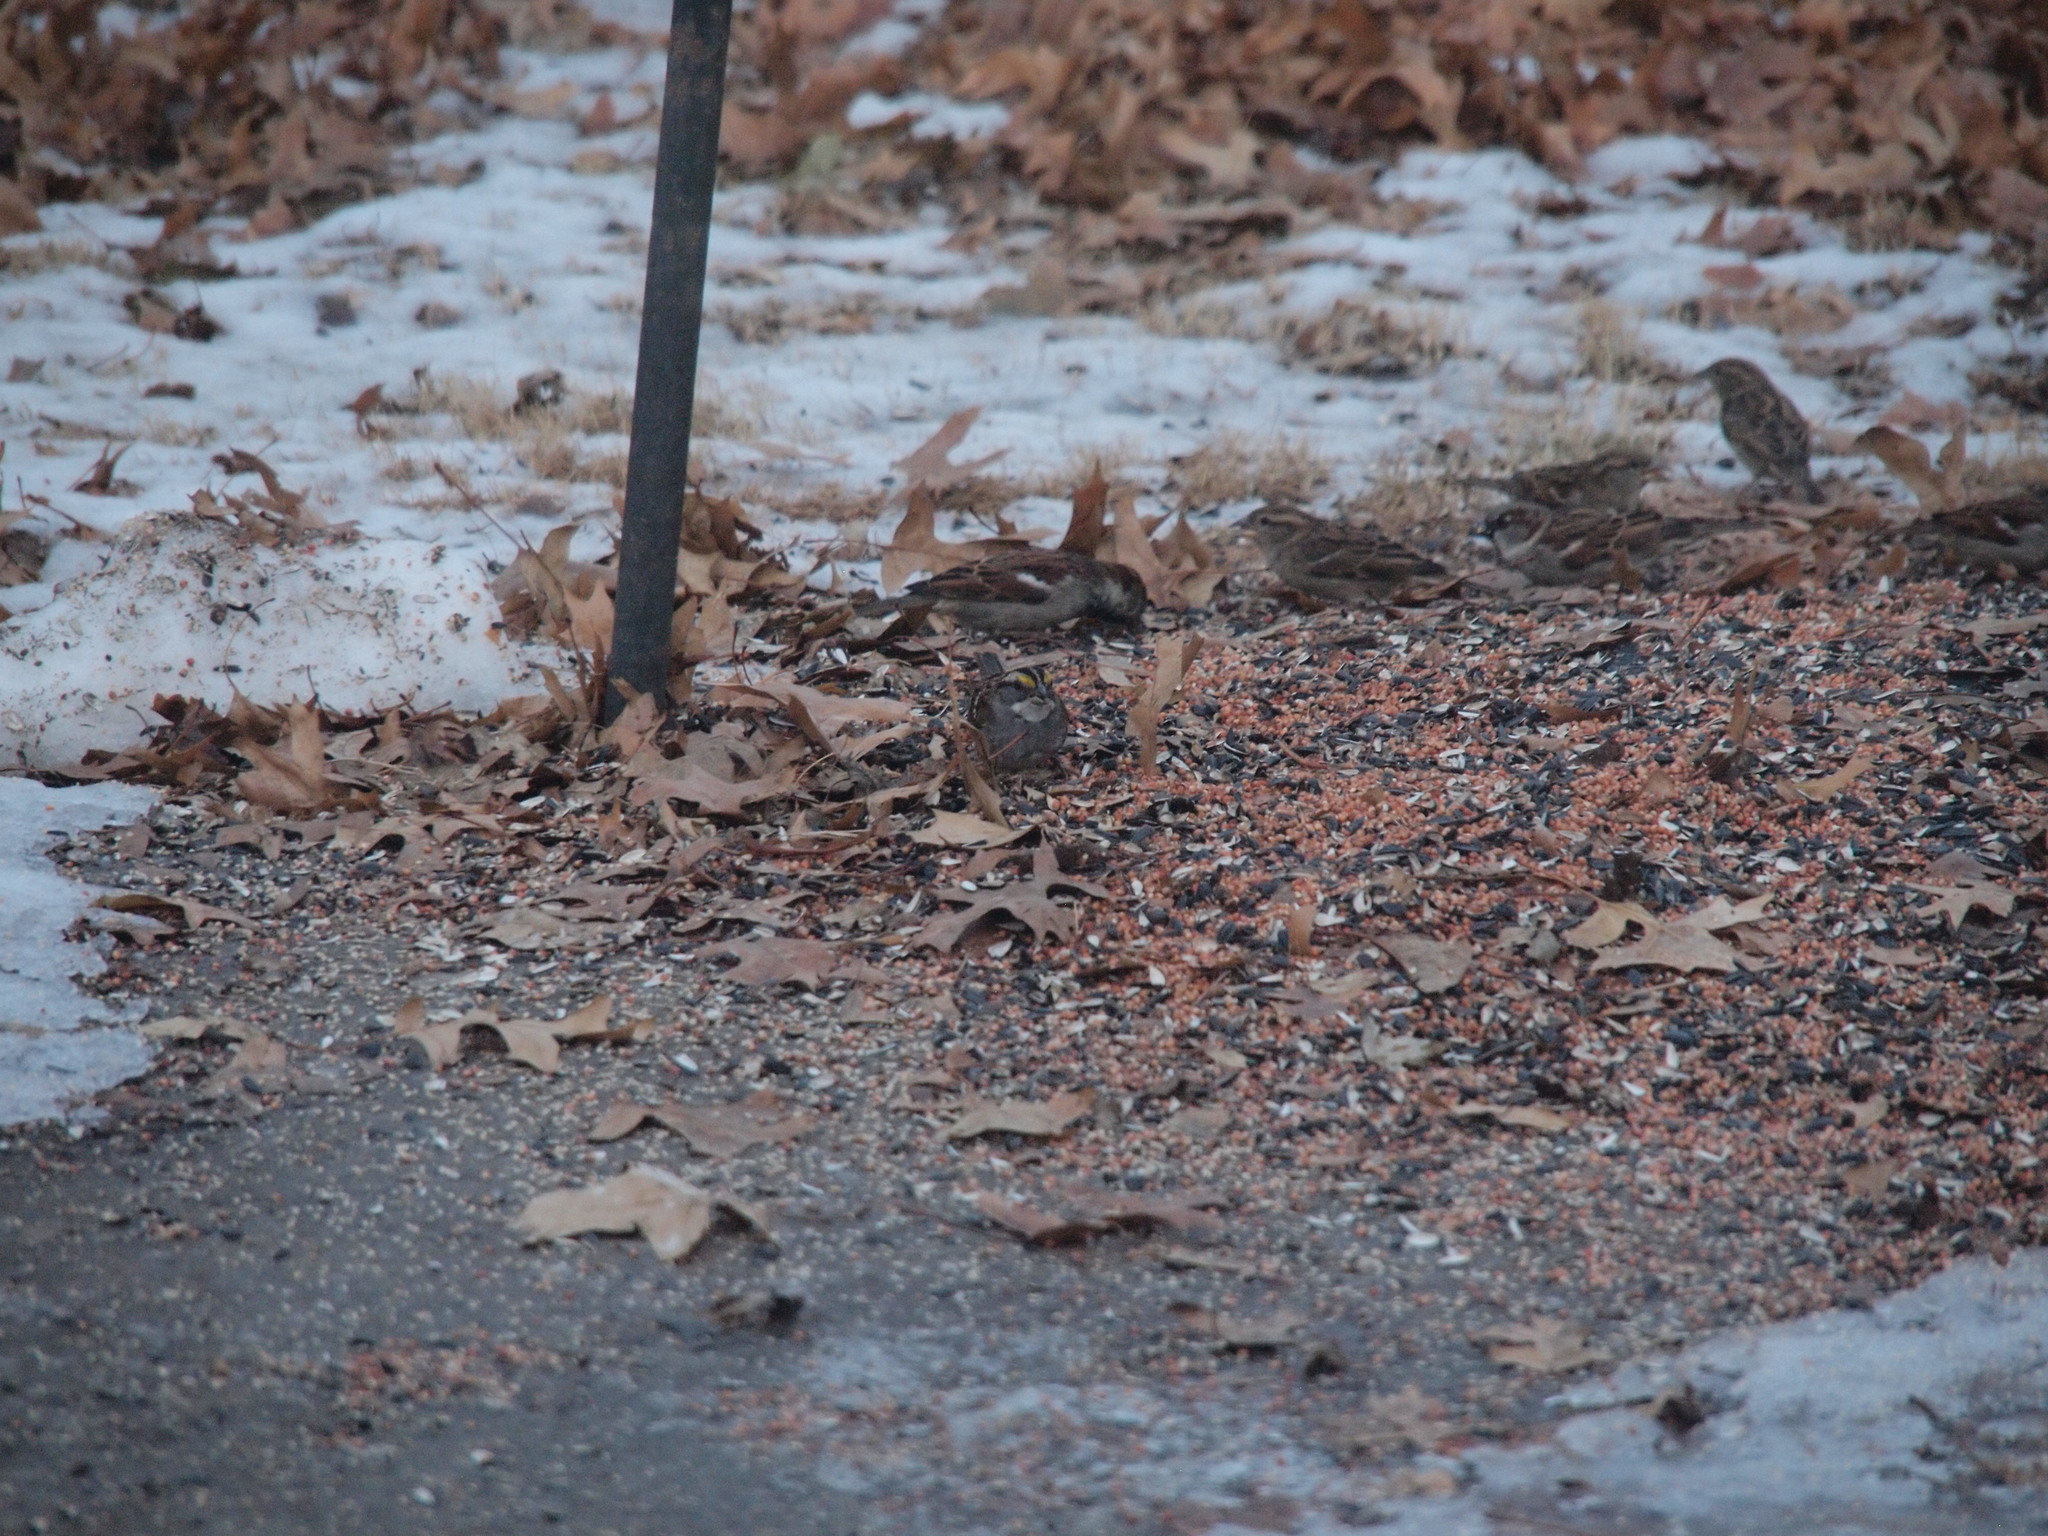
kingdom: Animalia
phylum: Chordata
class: Aves
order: Passeriformes
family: Passerellidae
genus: Zonotrichia
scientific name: Zonotrichia albicollis
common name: White-throated sparrow
